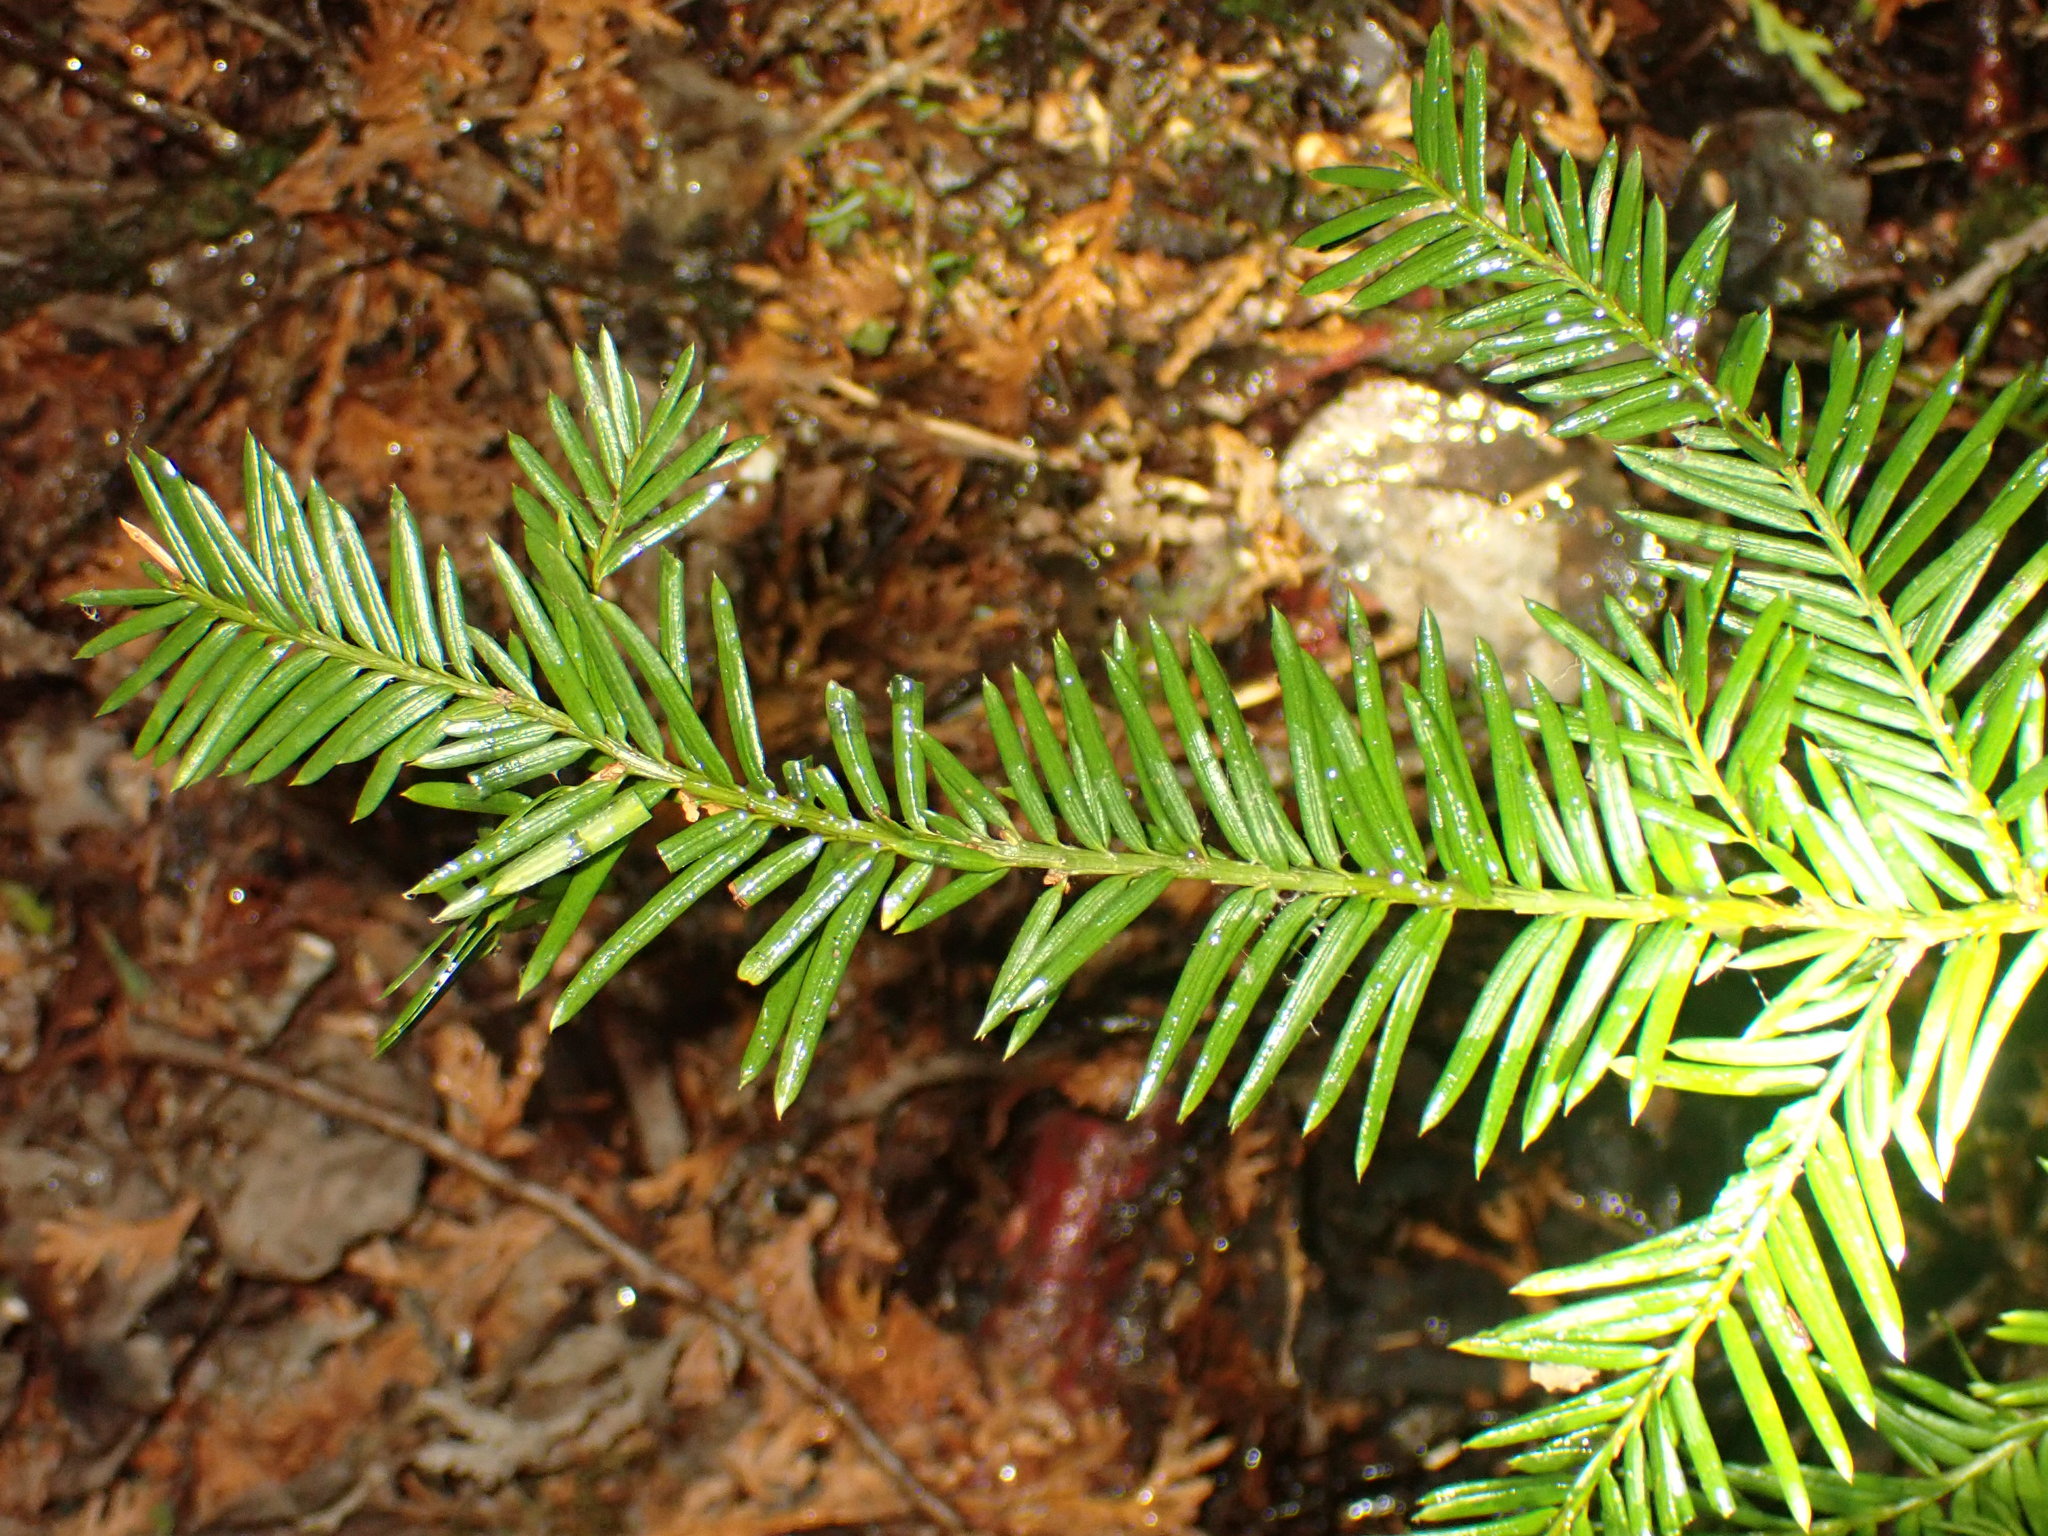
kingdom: Plantae
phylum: Tracheophyta
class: Pinopsida
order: Pinales
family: Taxaceae
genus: Taxus
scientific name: Taxus canadensis
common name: American yew
